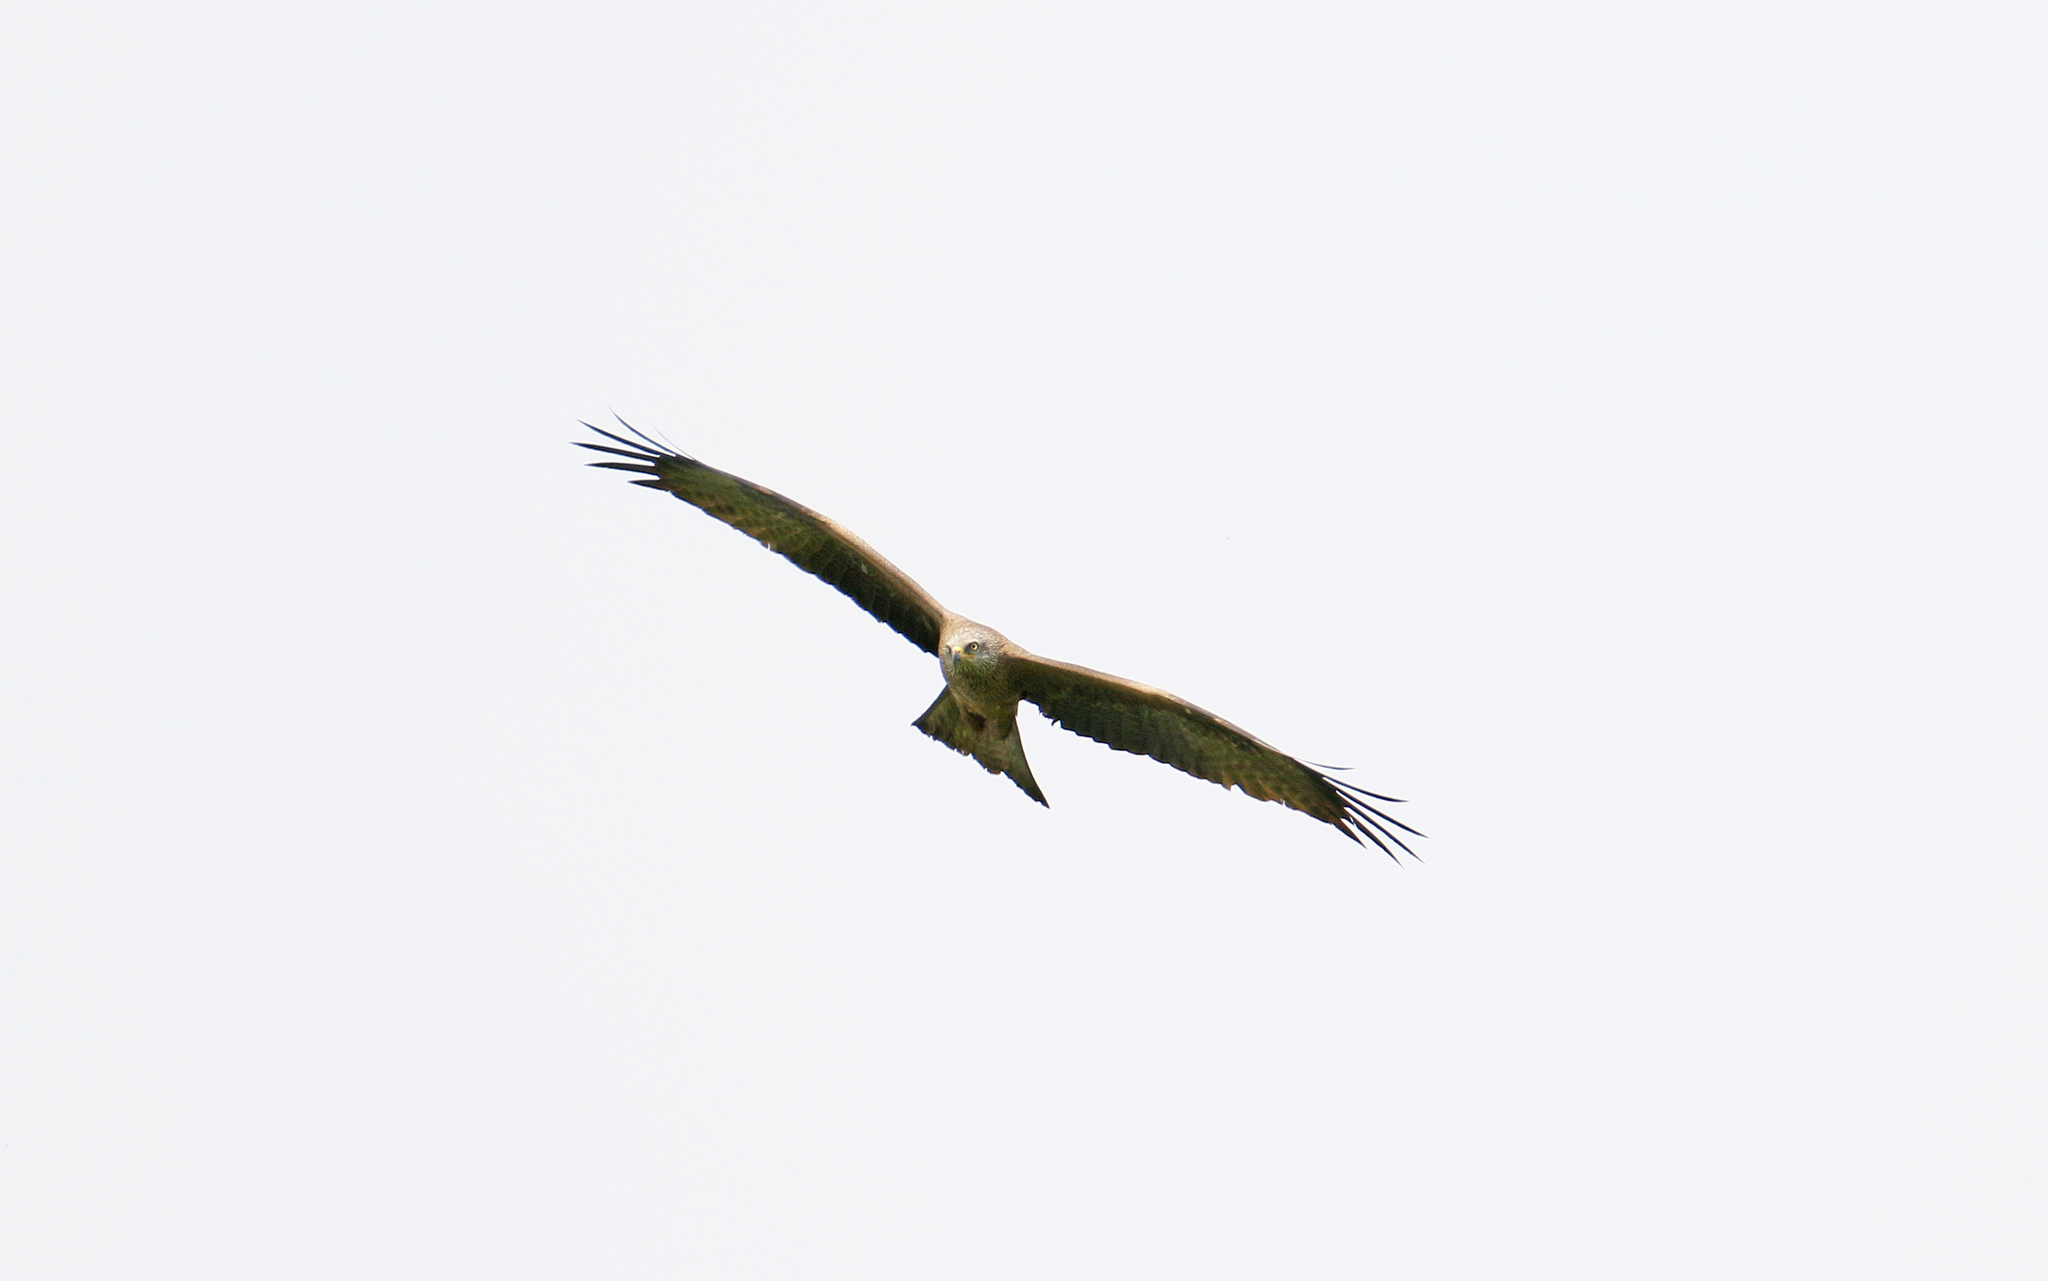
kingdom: Animalia
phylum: Chordata
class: Aves
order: Accipitriformes
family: Accipitridae
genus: Milvus
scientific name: Milvus migrans
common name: Black kite
